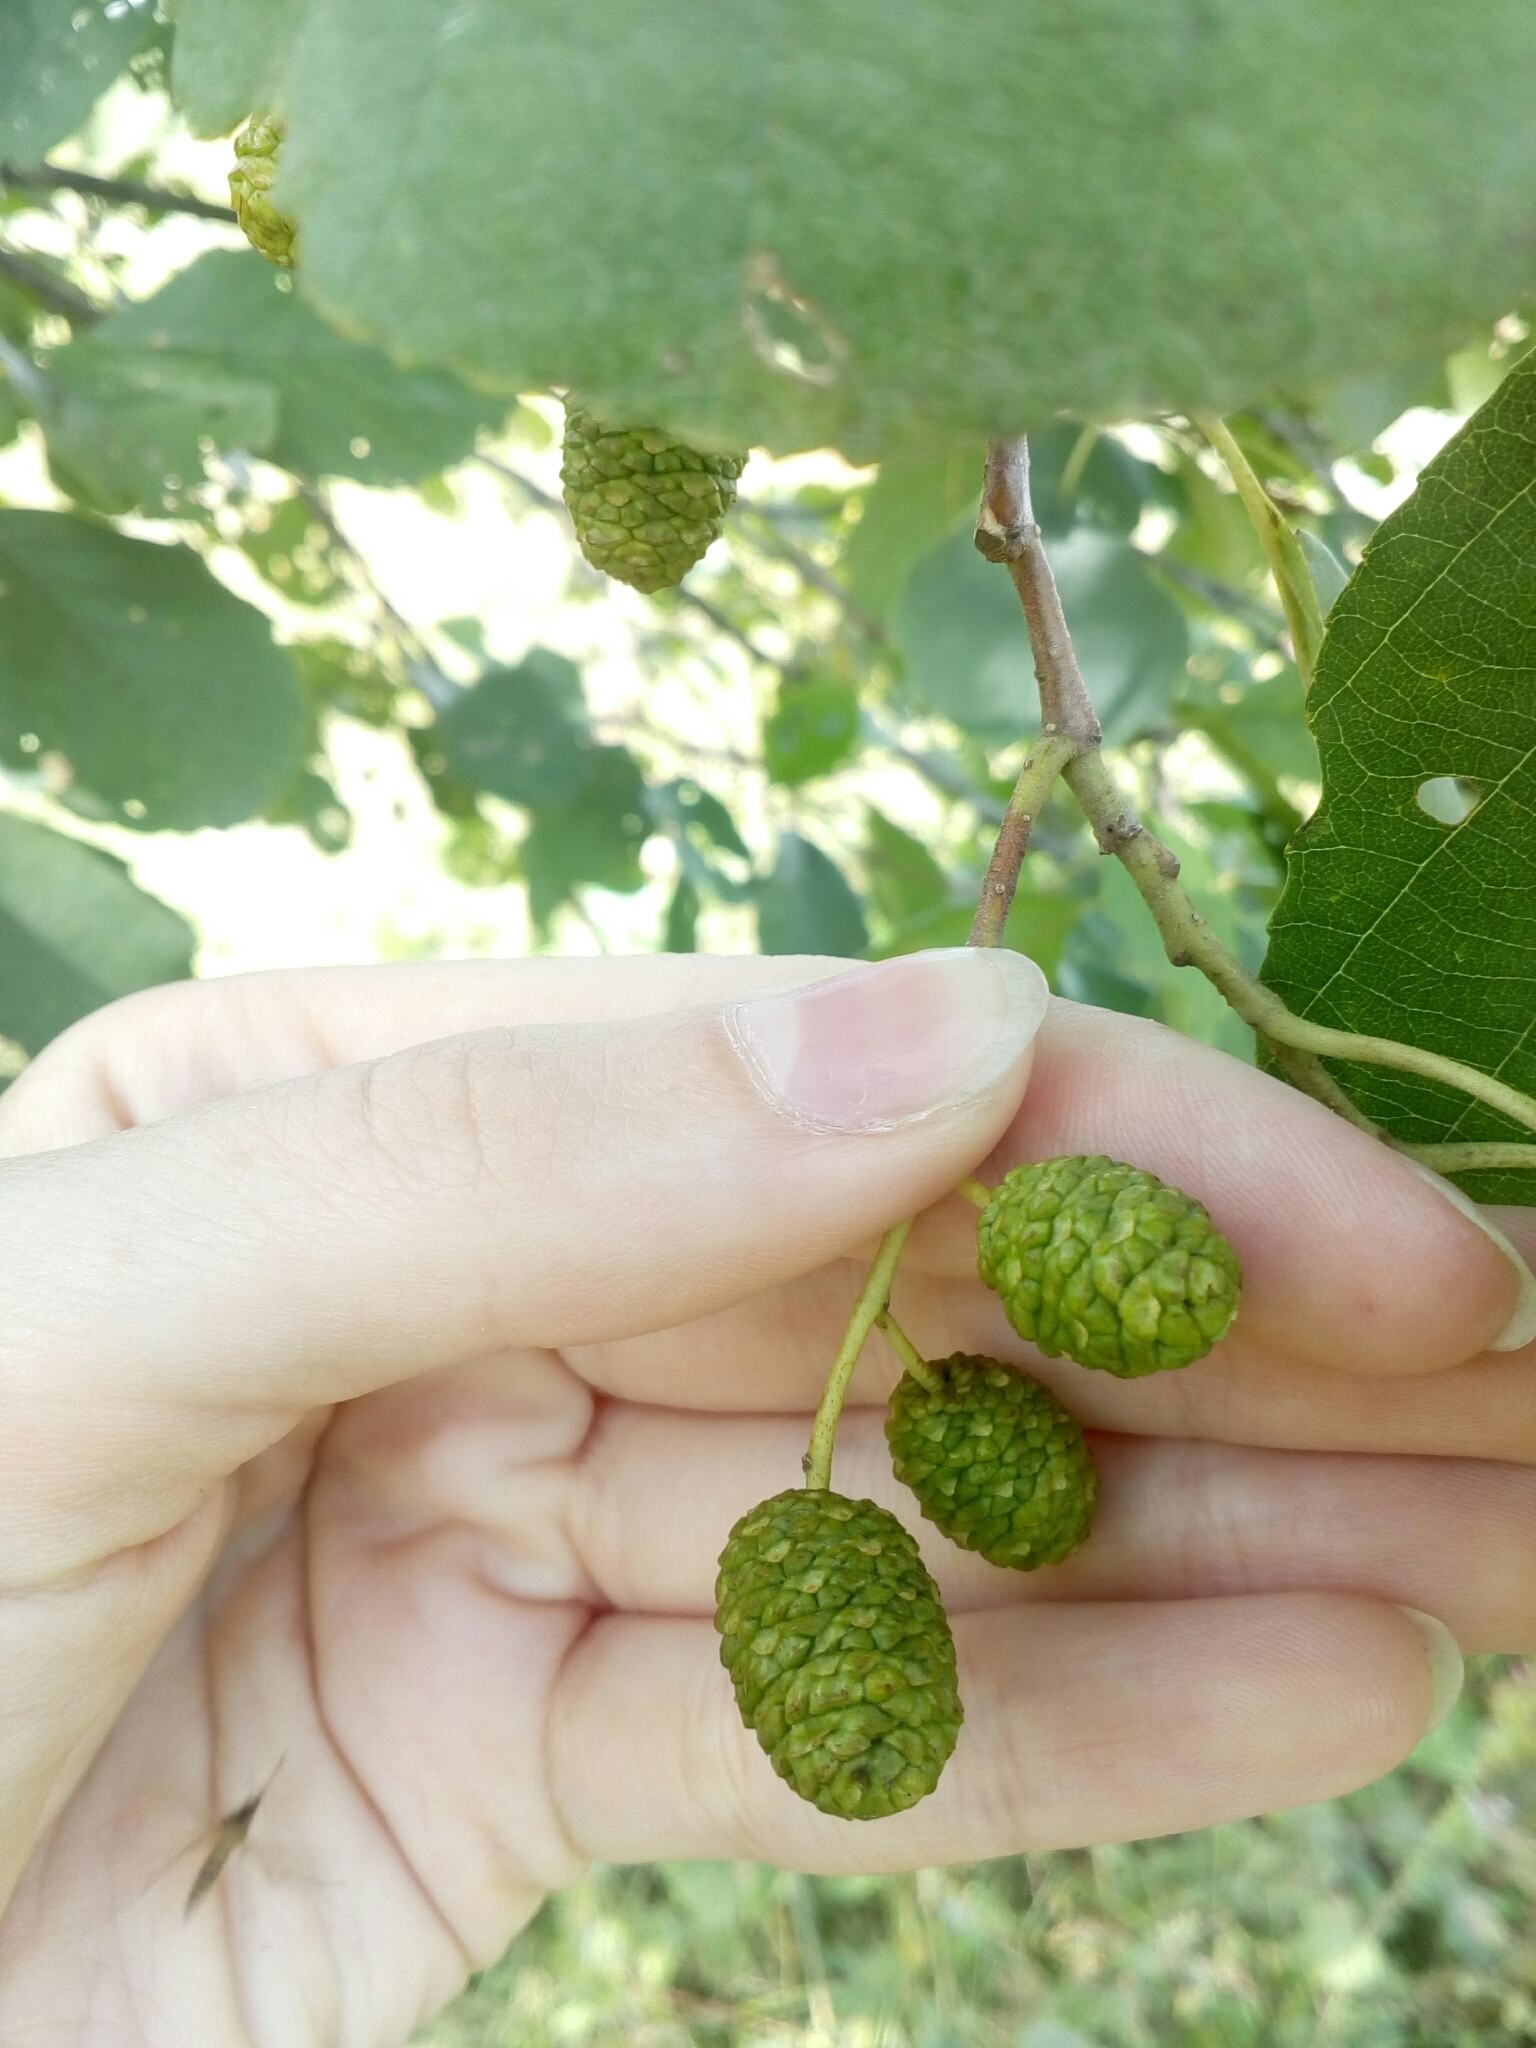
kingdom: Plantae
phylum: Tracheophyta
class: Magnoliopsida
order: Fagales
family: Betulaceae
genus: Alnus
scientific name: Alnus glutinosa
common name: Black alder
